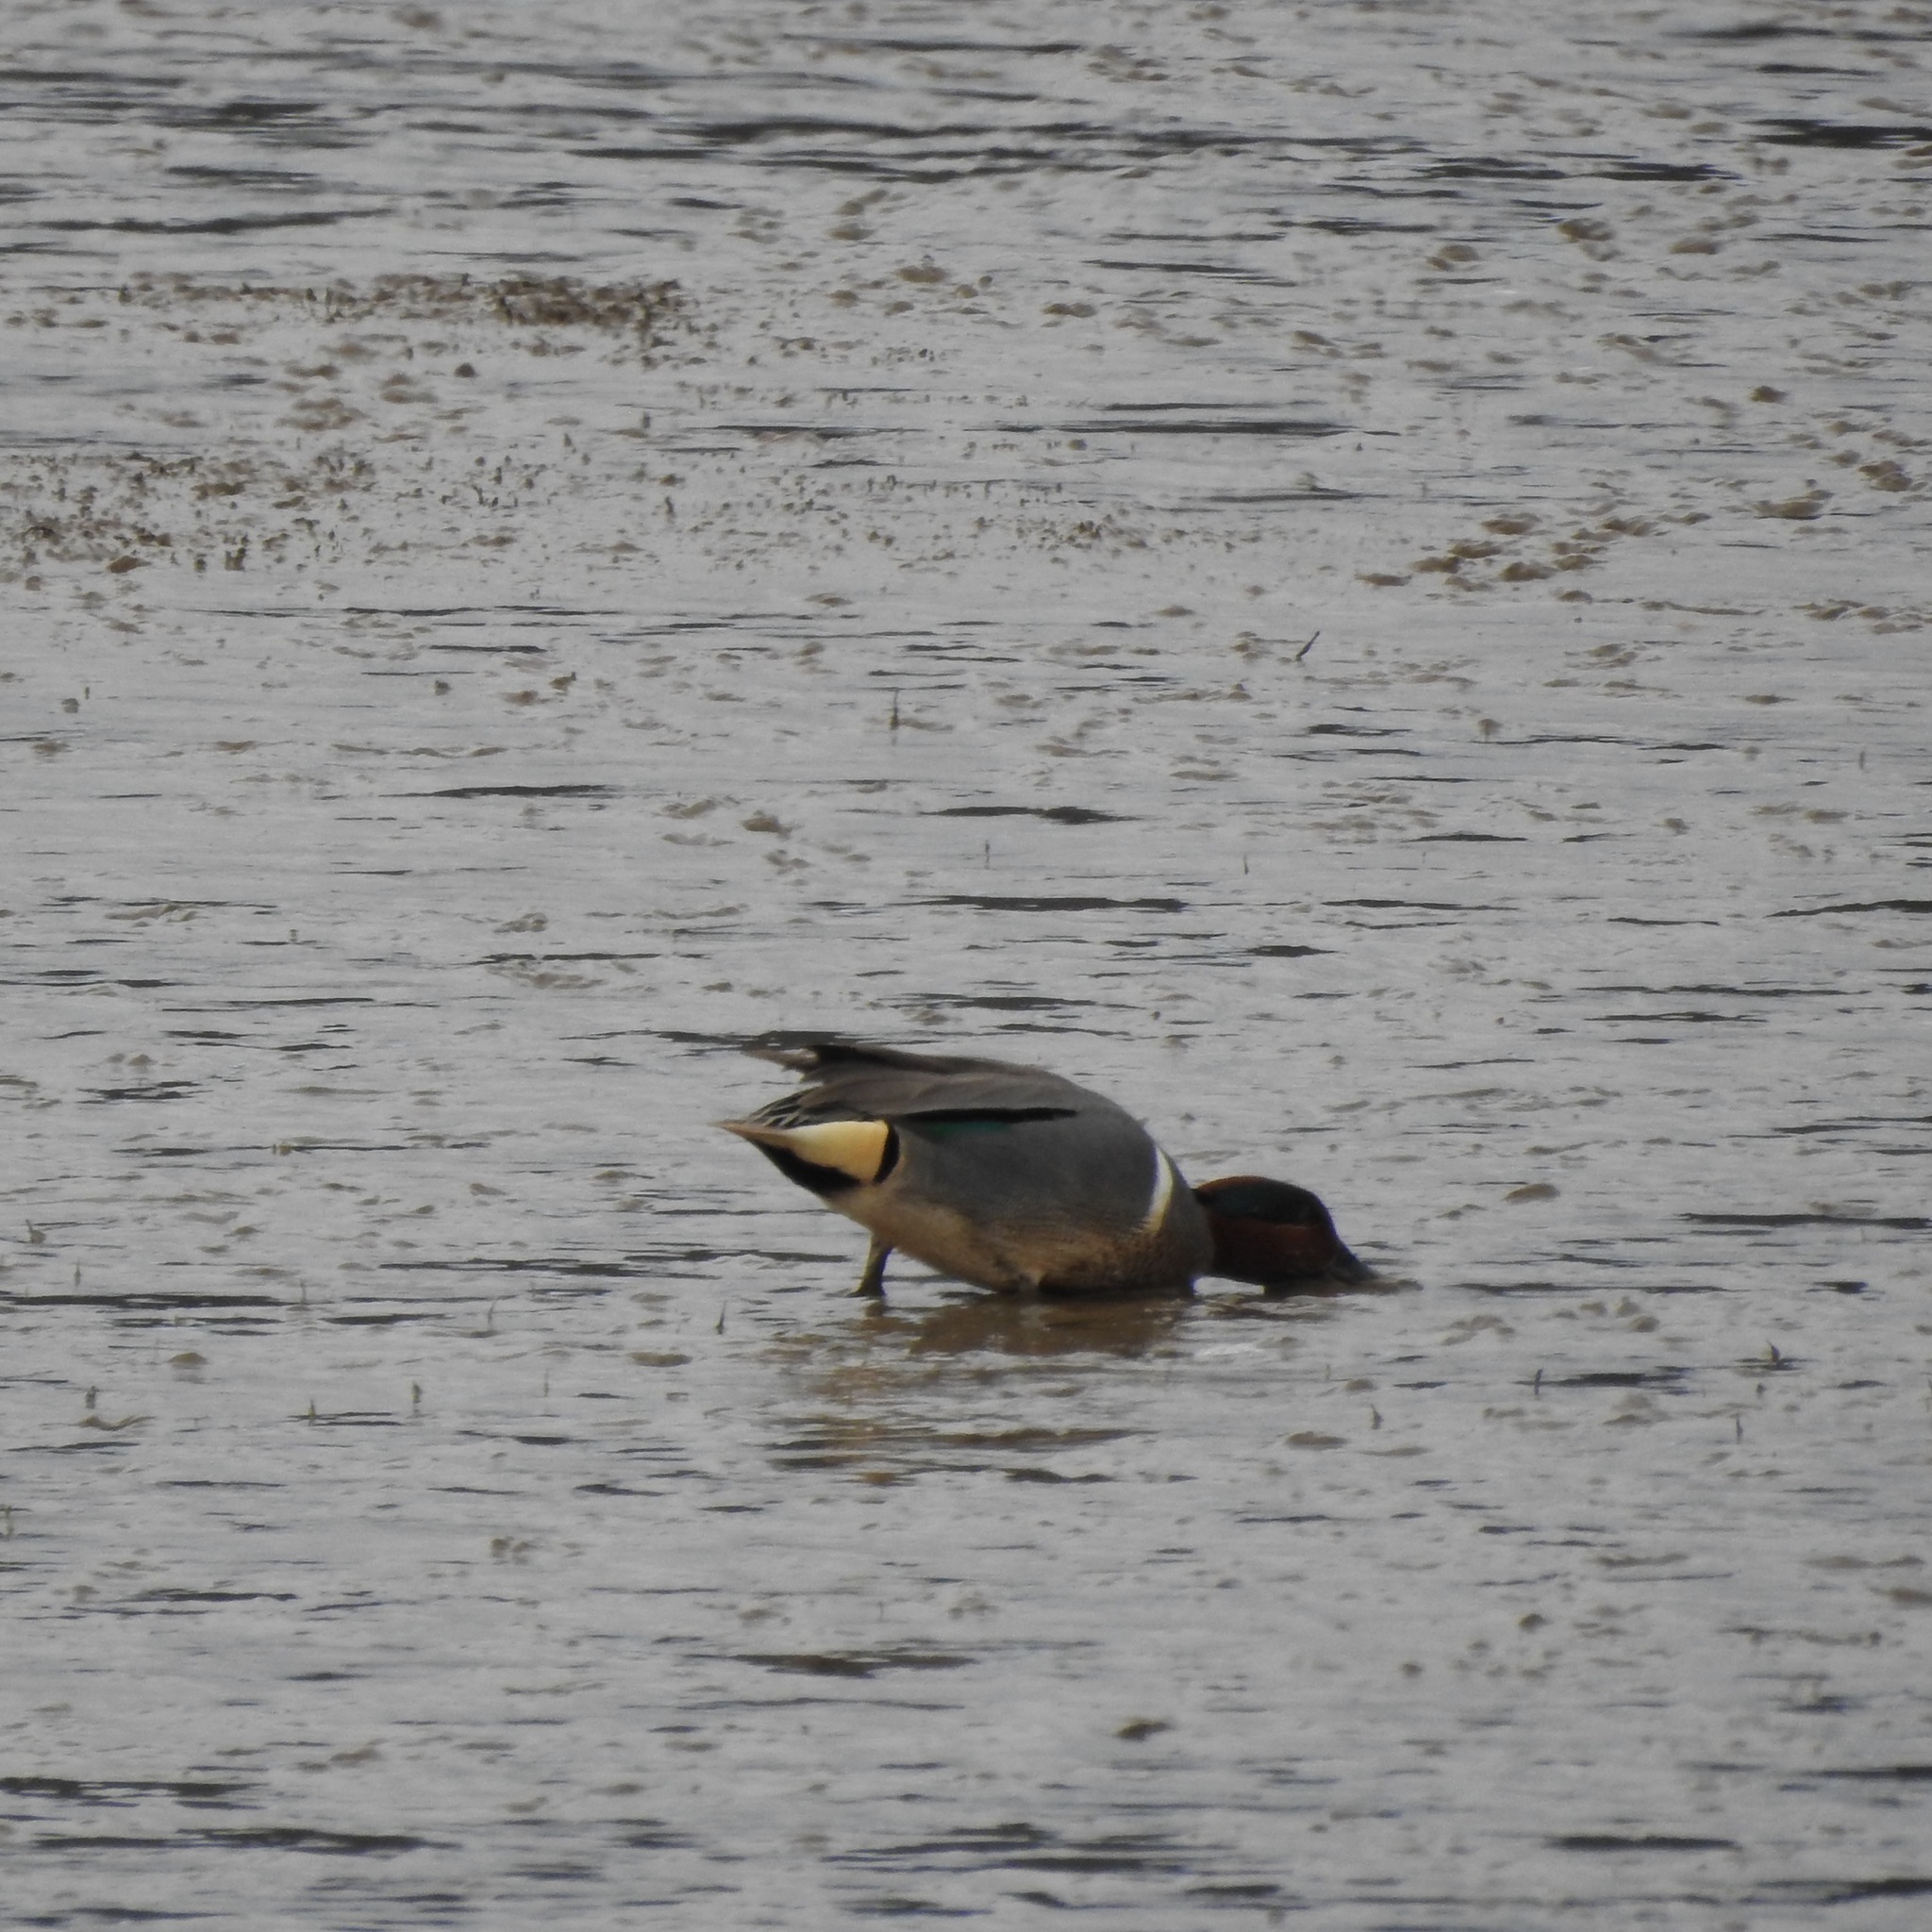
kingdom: Animalia
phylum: Chordata
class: Aves
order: Anseriformes
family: Anatidae
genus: Anas
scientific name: Anas crecca
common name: Eurasian teal
